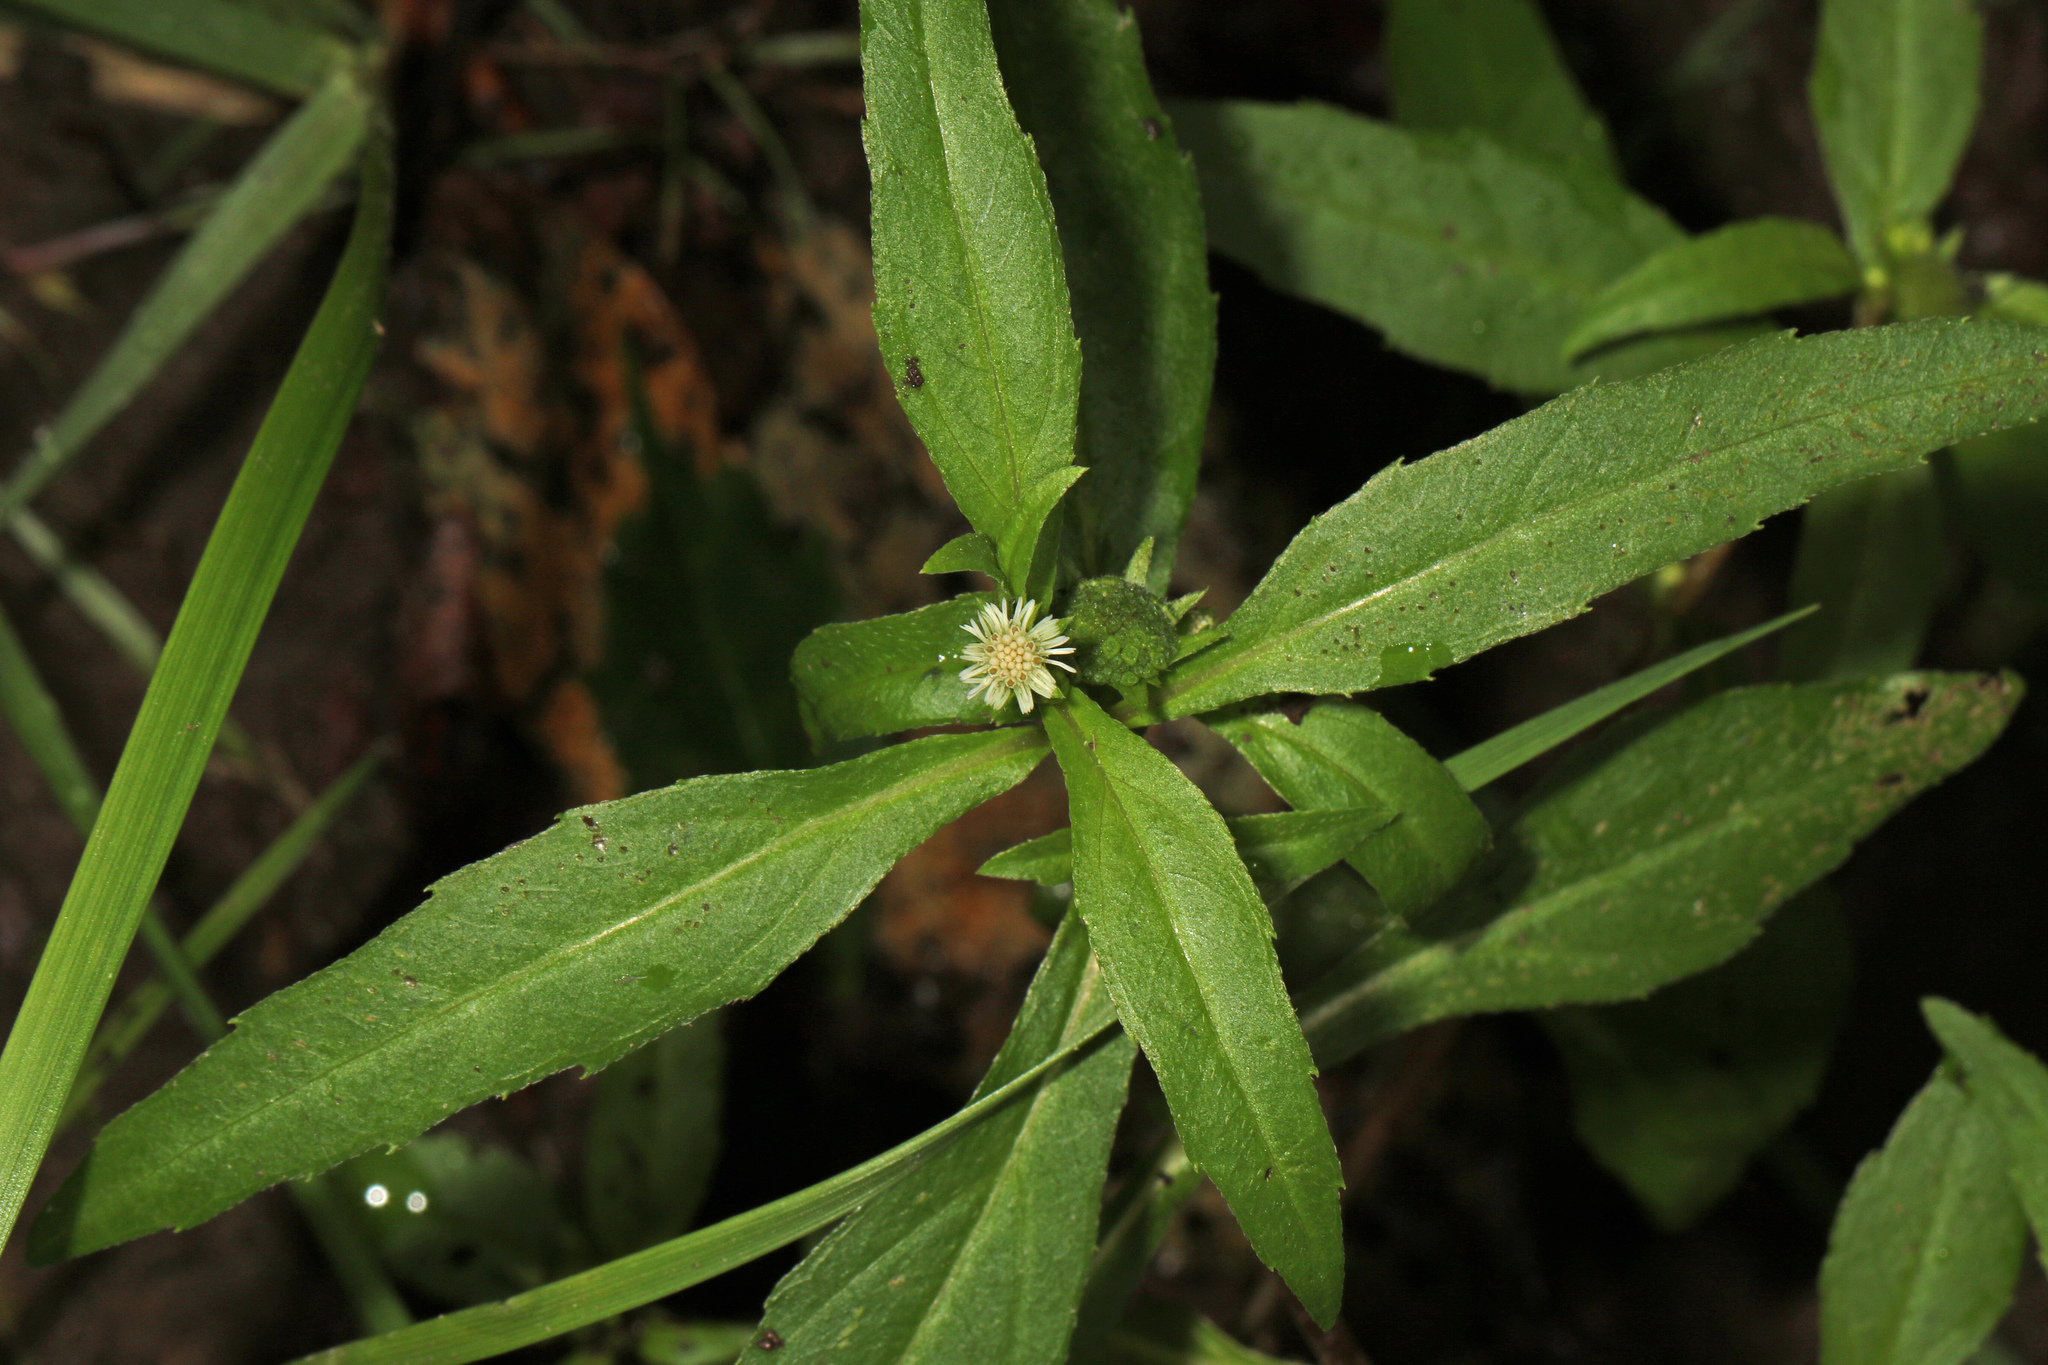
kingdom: Plantae
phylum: Tracheophyta
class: Magnoliopsida
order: Asterales
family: Asteraceae
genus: Eclipta
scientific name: Eclipta prostrata
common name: False daisy
